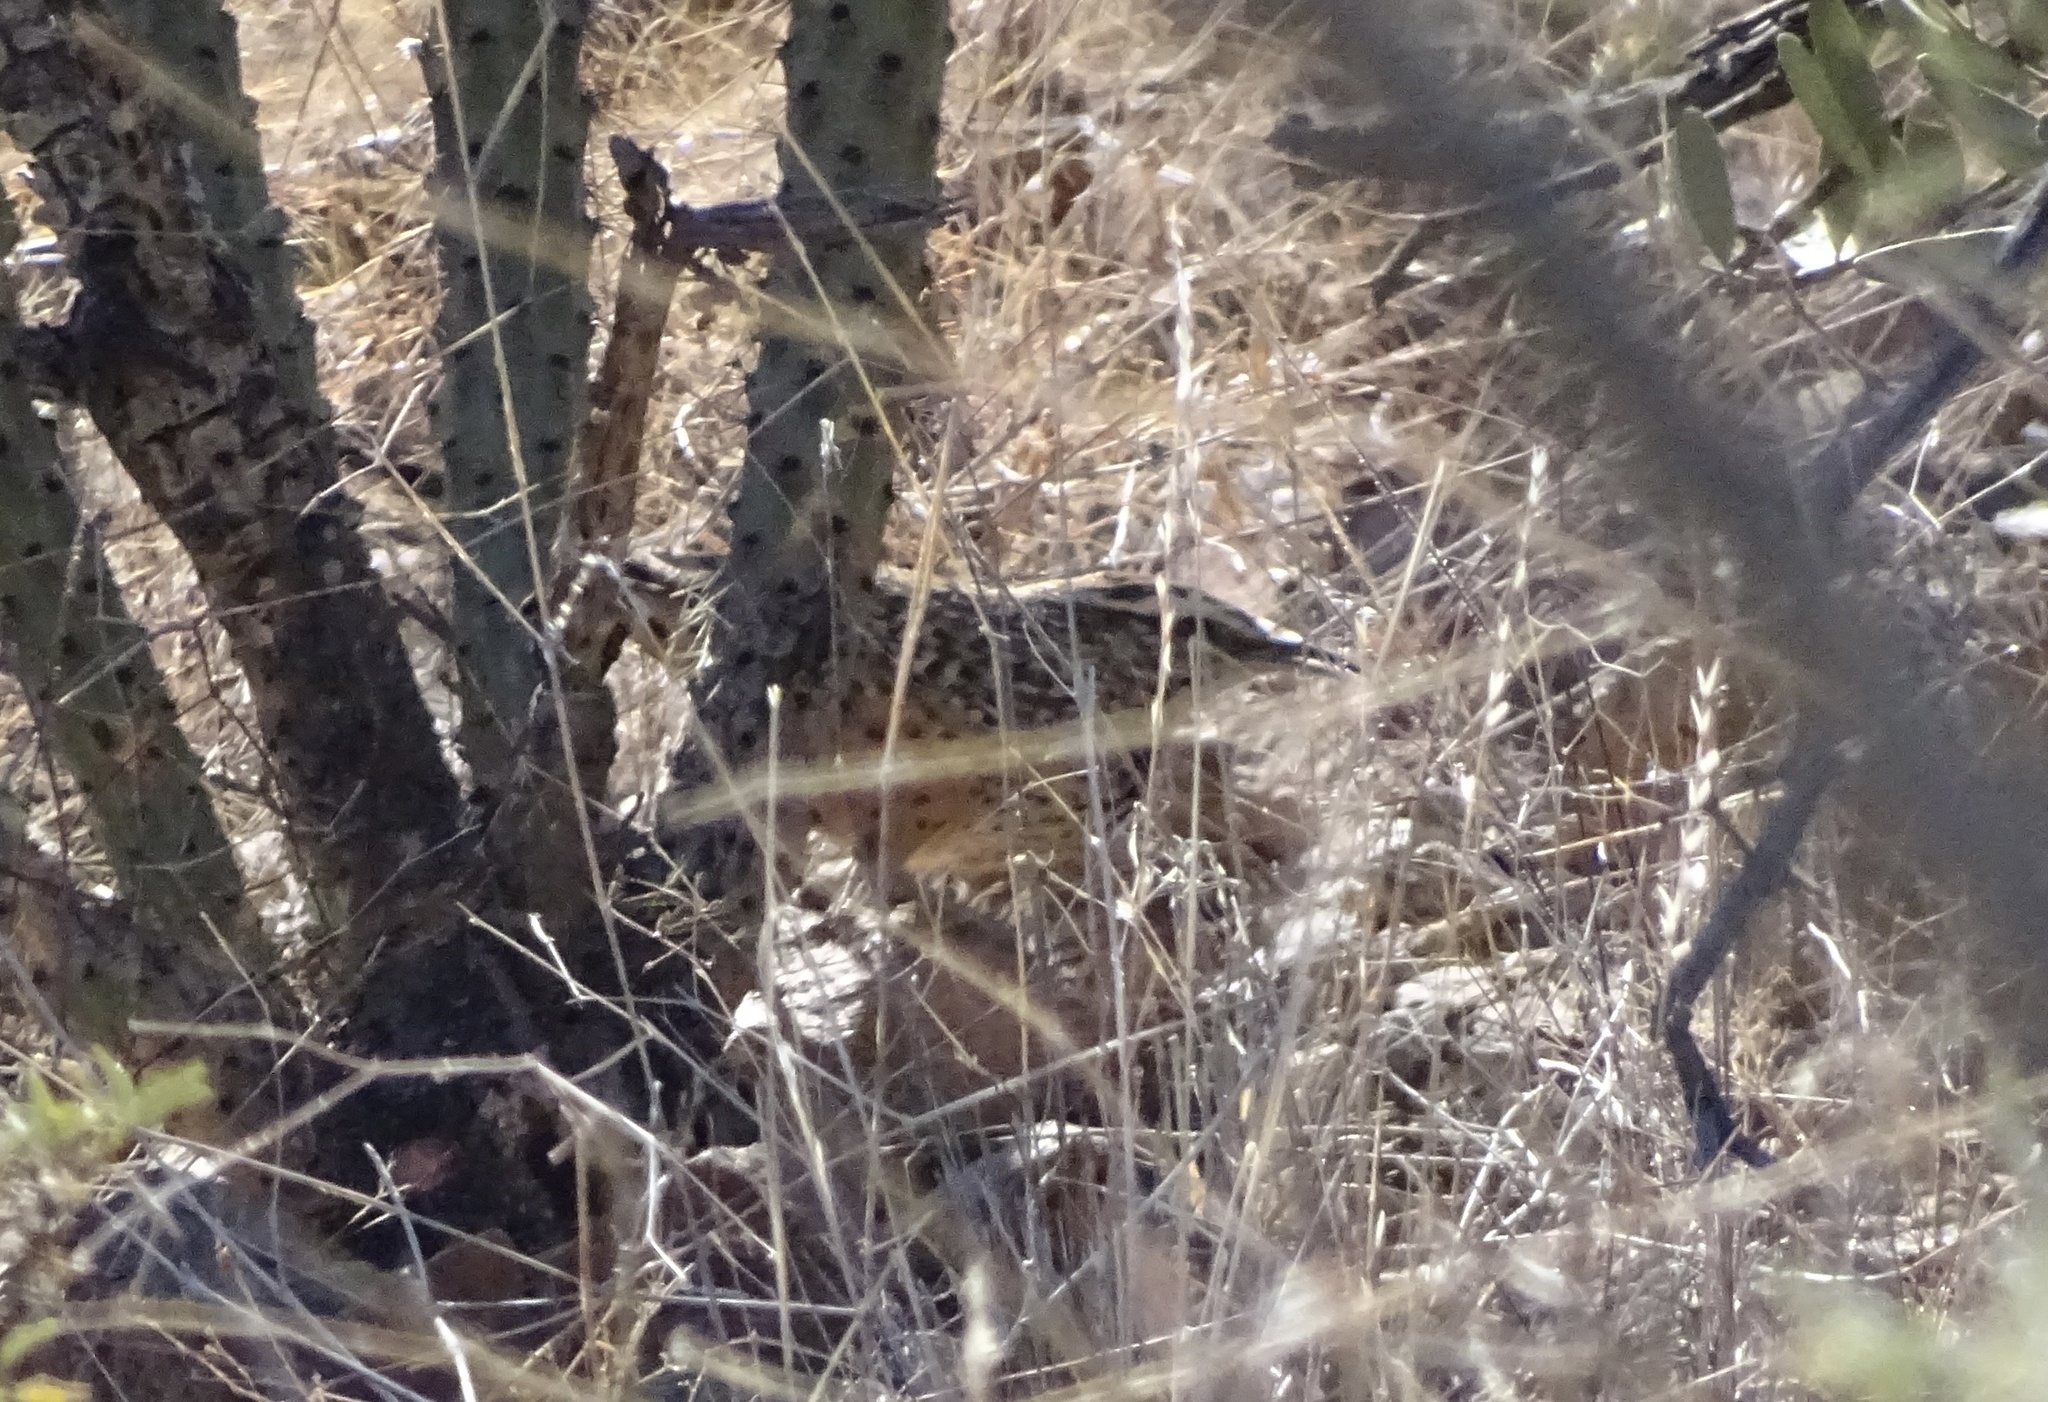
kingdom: Animalia
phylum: Chordata
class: Aves
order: Passeriformes
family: Troglodytidae
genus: Campylorhynchus
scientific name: Campylorhynchus brunneicapillus
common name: Cactus wren
